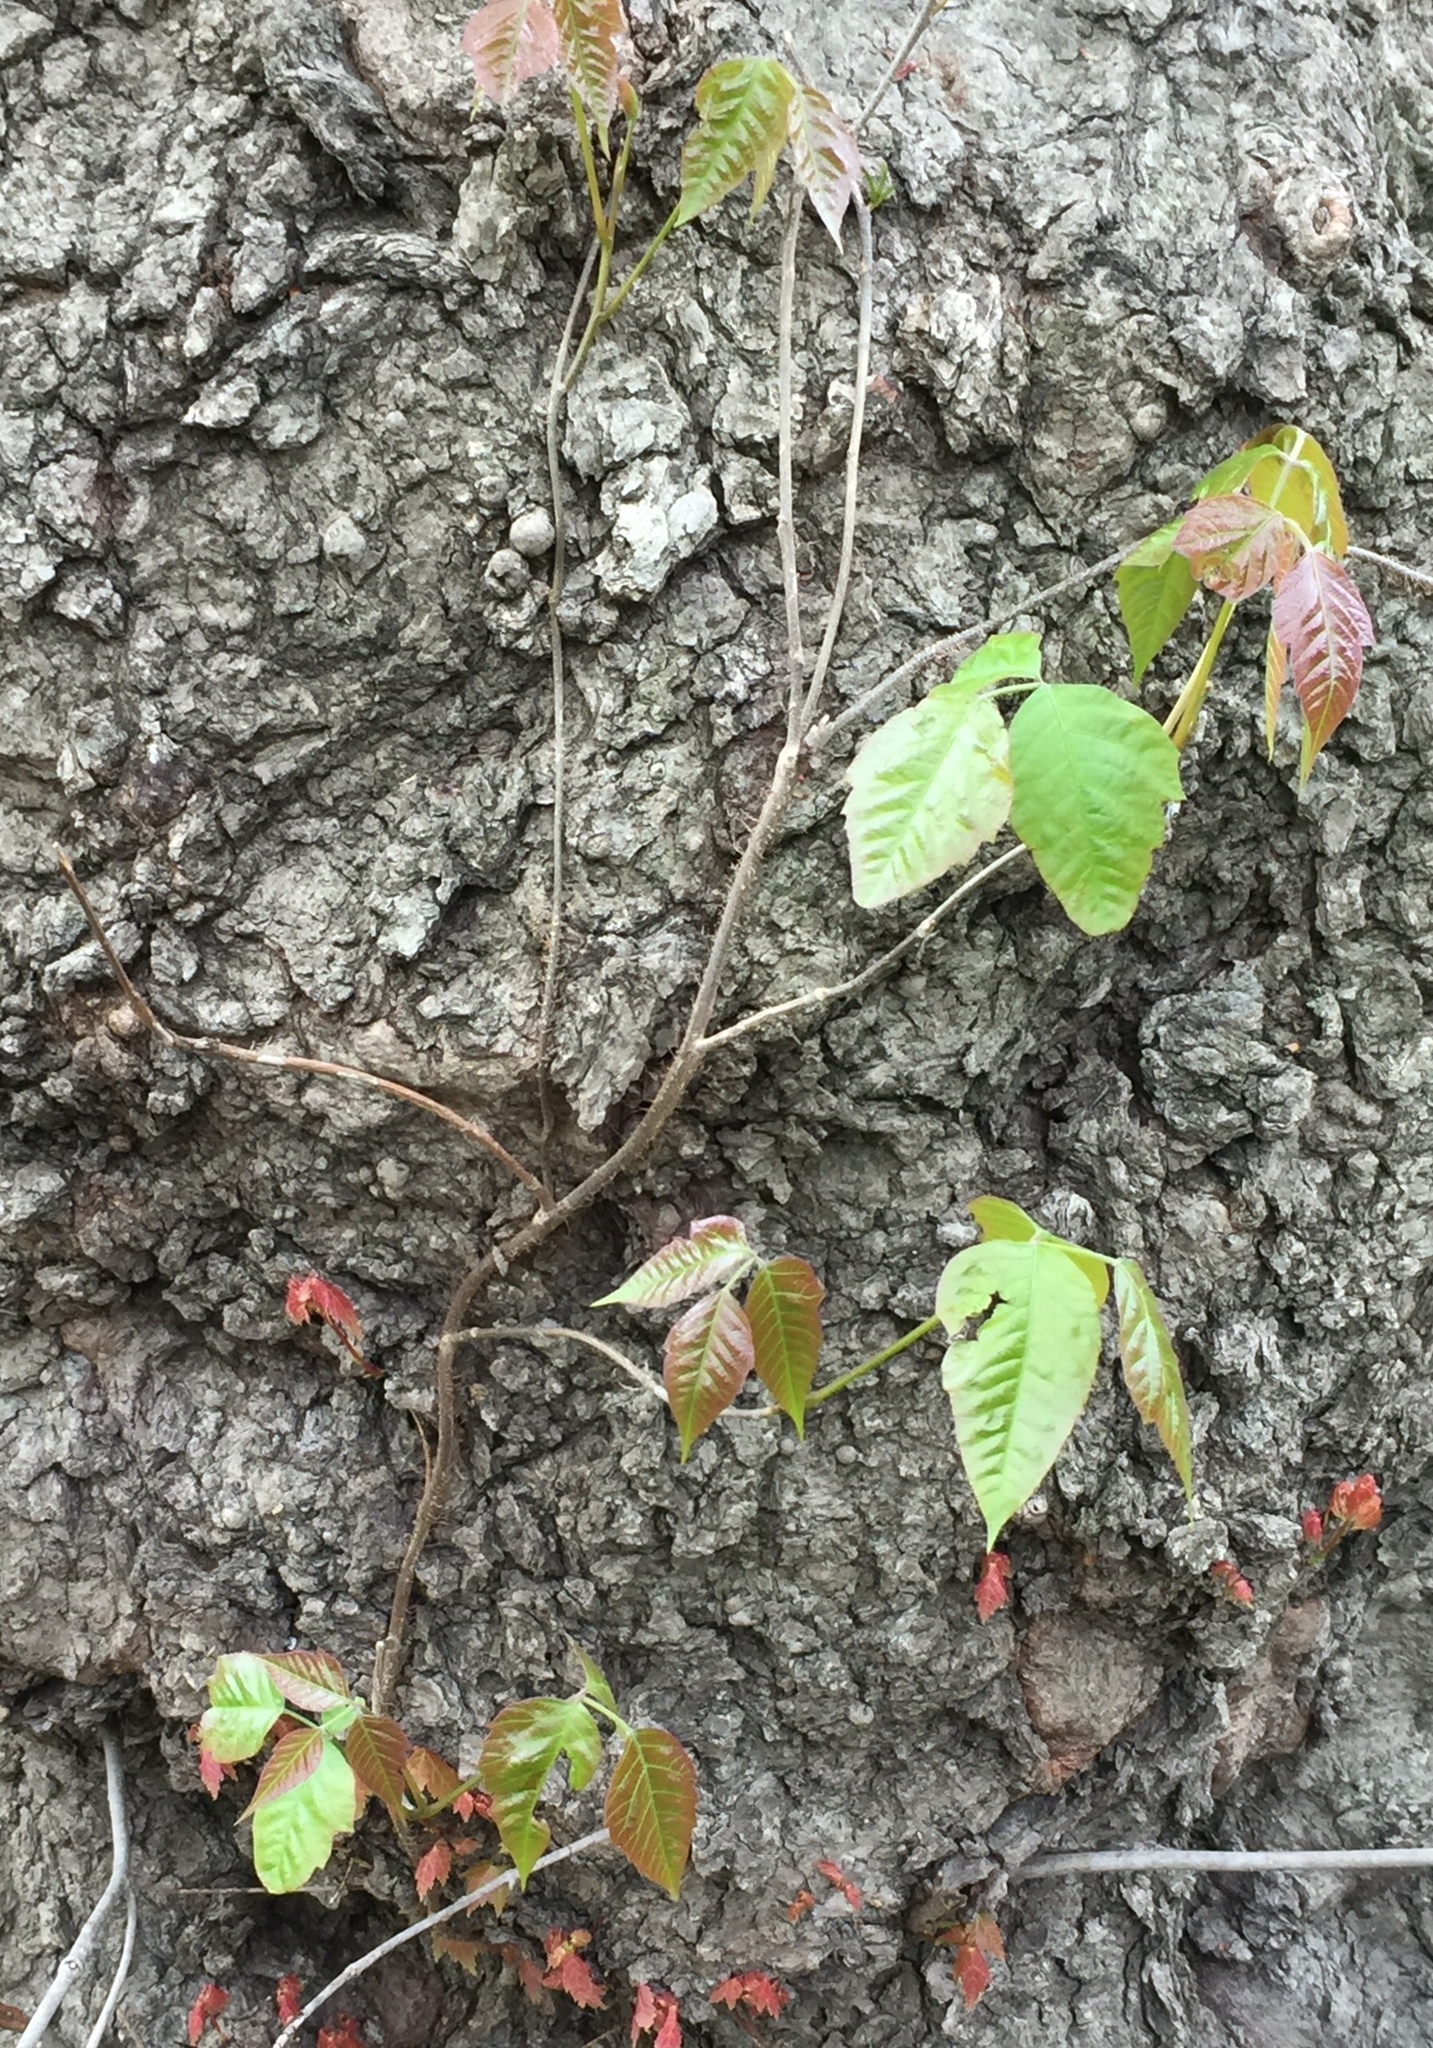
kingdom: Plantae
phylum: Tracheophyta
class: Magnoliopsida
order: Sapindales
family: Anacardiaceae
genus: Toxicodendron
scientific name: Toxicodendron radicans
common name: Poison ivy
